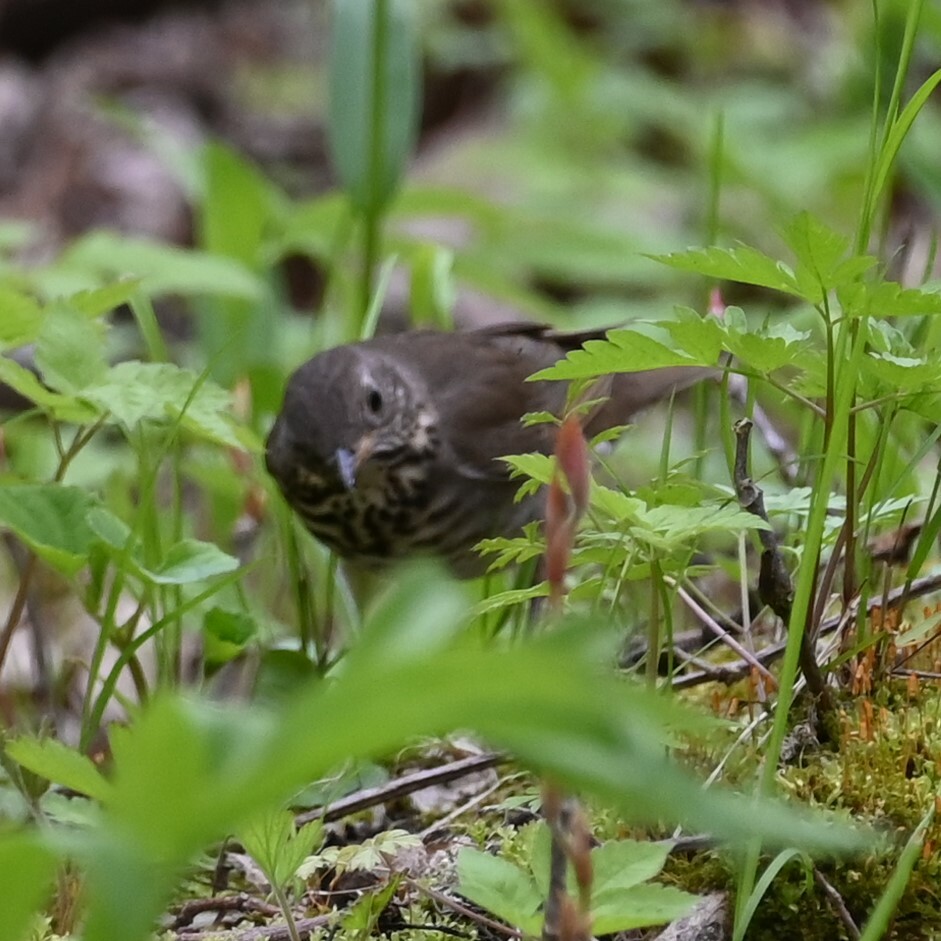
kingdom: Animalia
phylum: Chordata
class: Aves
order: Passeriformes
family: Turdidae
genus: Catharus
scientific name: Catharus minimus
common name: Grey-cheeked thrush
